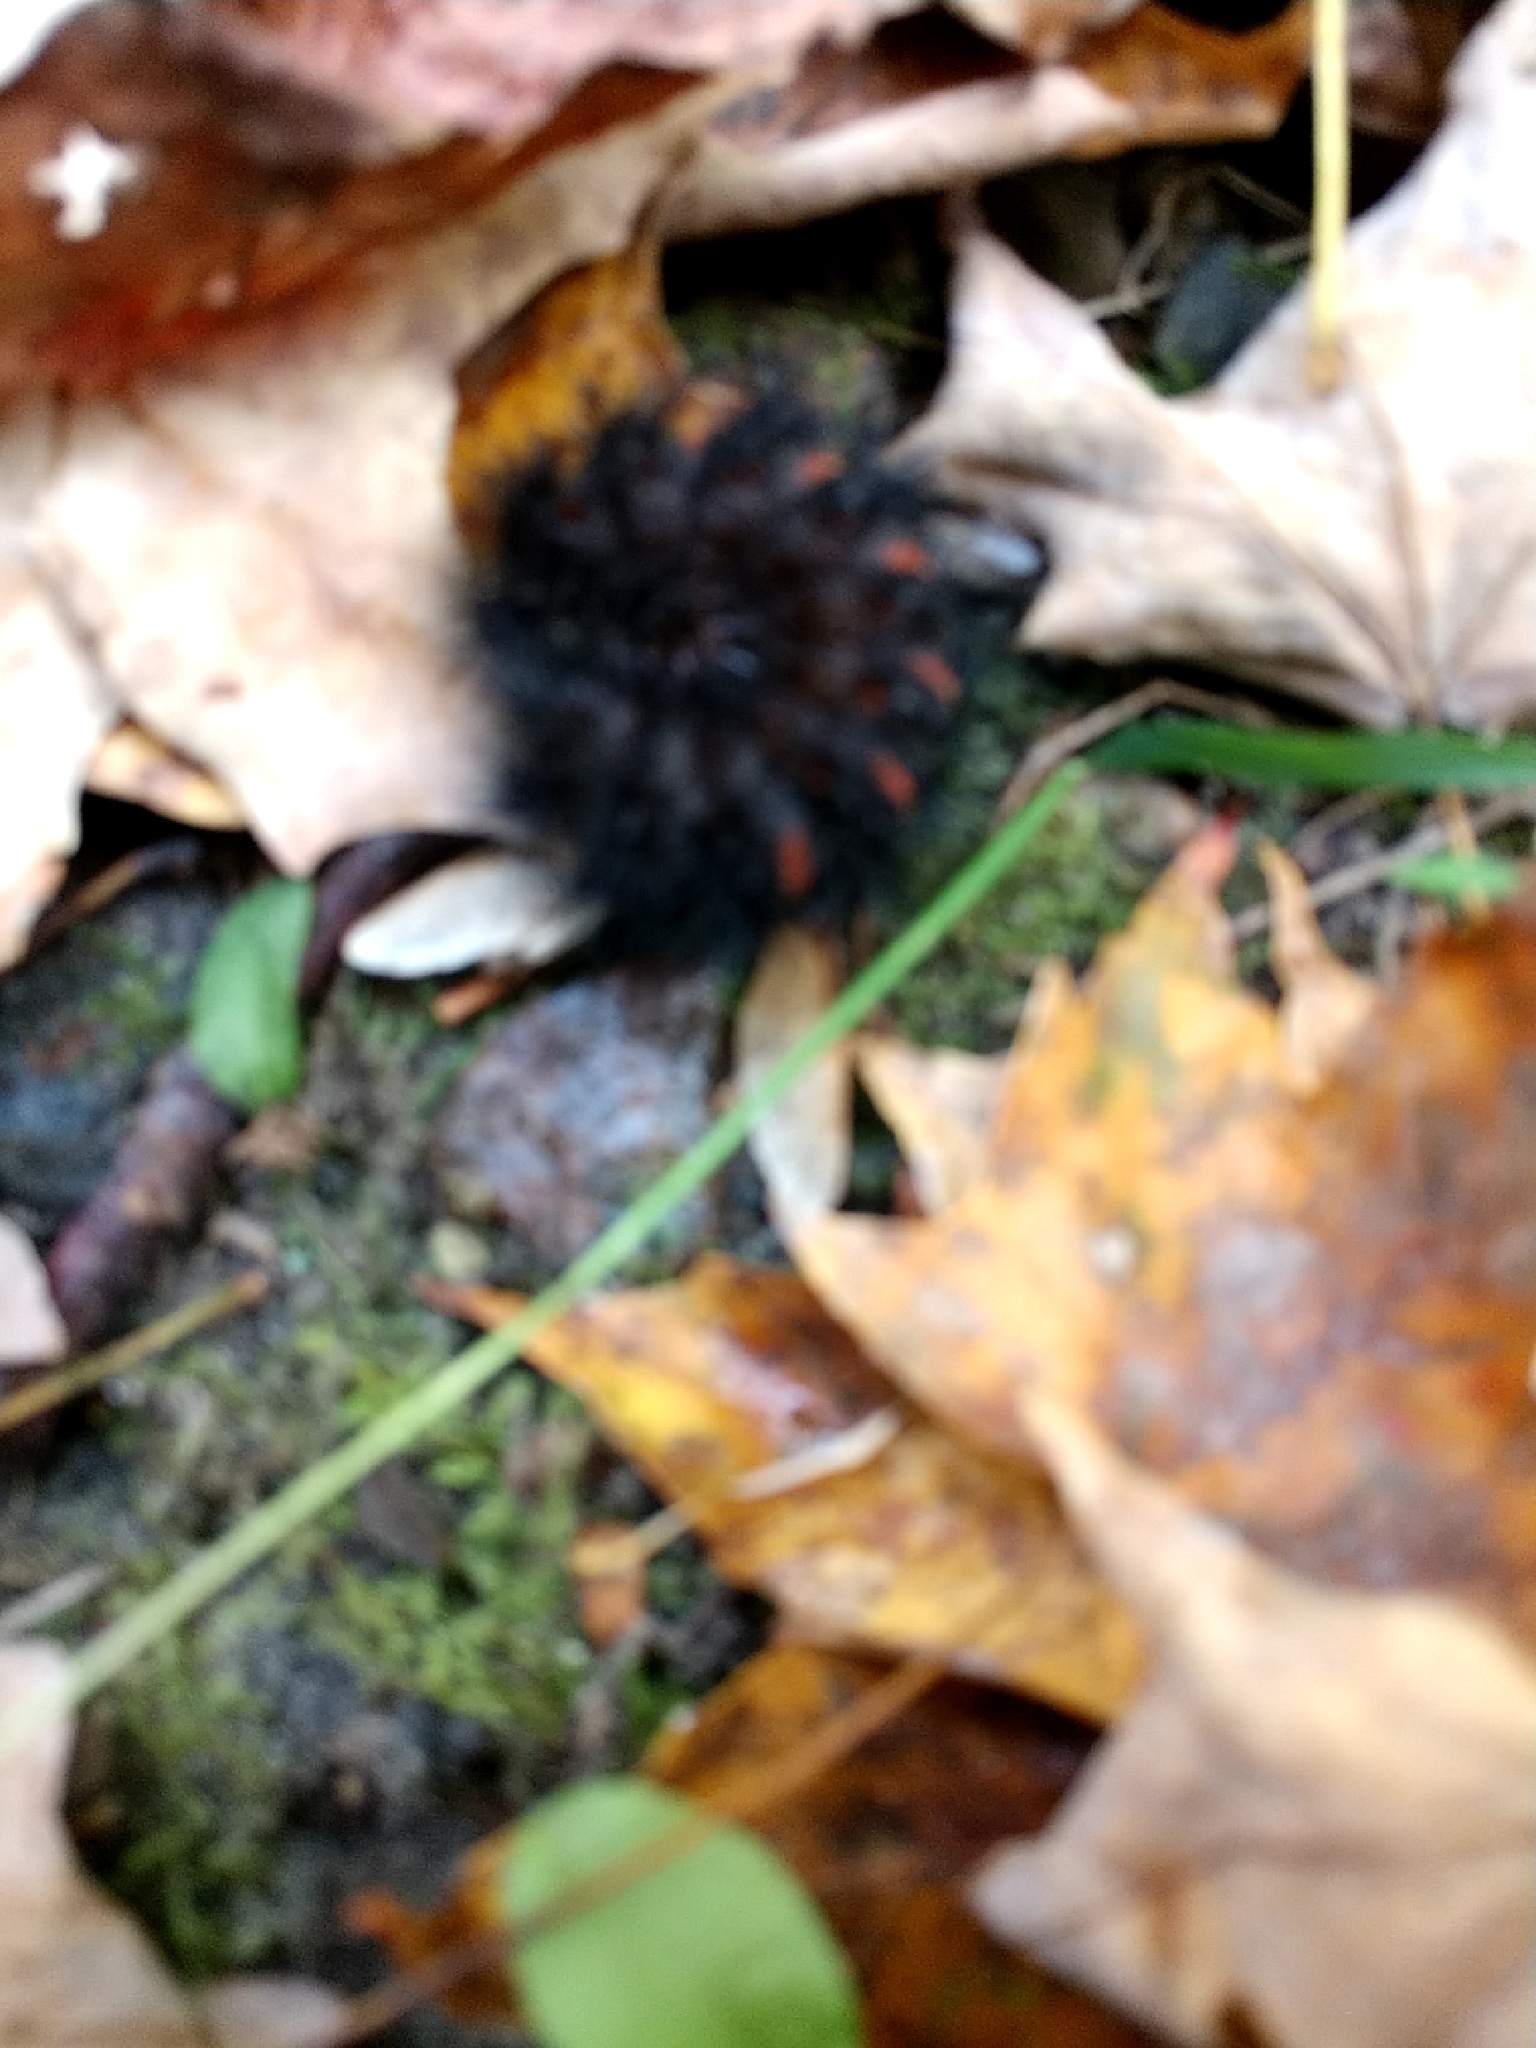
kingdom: Animalia
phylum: Arthropoda
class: Insecta
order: Lepidoptera
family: Erebidae
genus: Hypercompe
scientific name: Hypercompe scribonia
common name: Giant leopard moth
